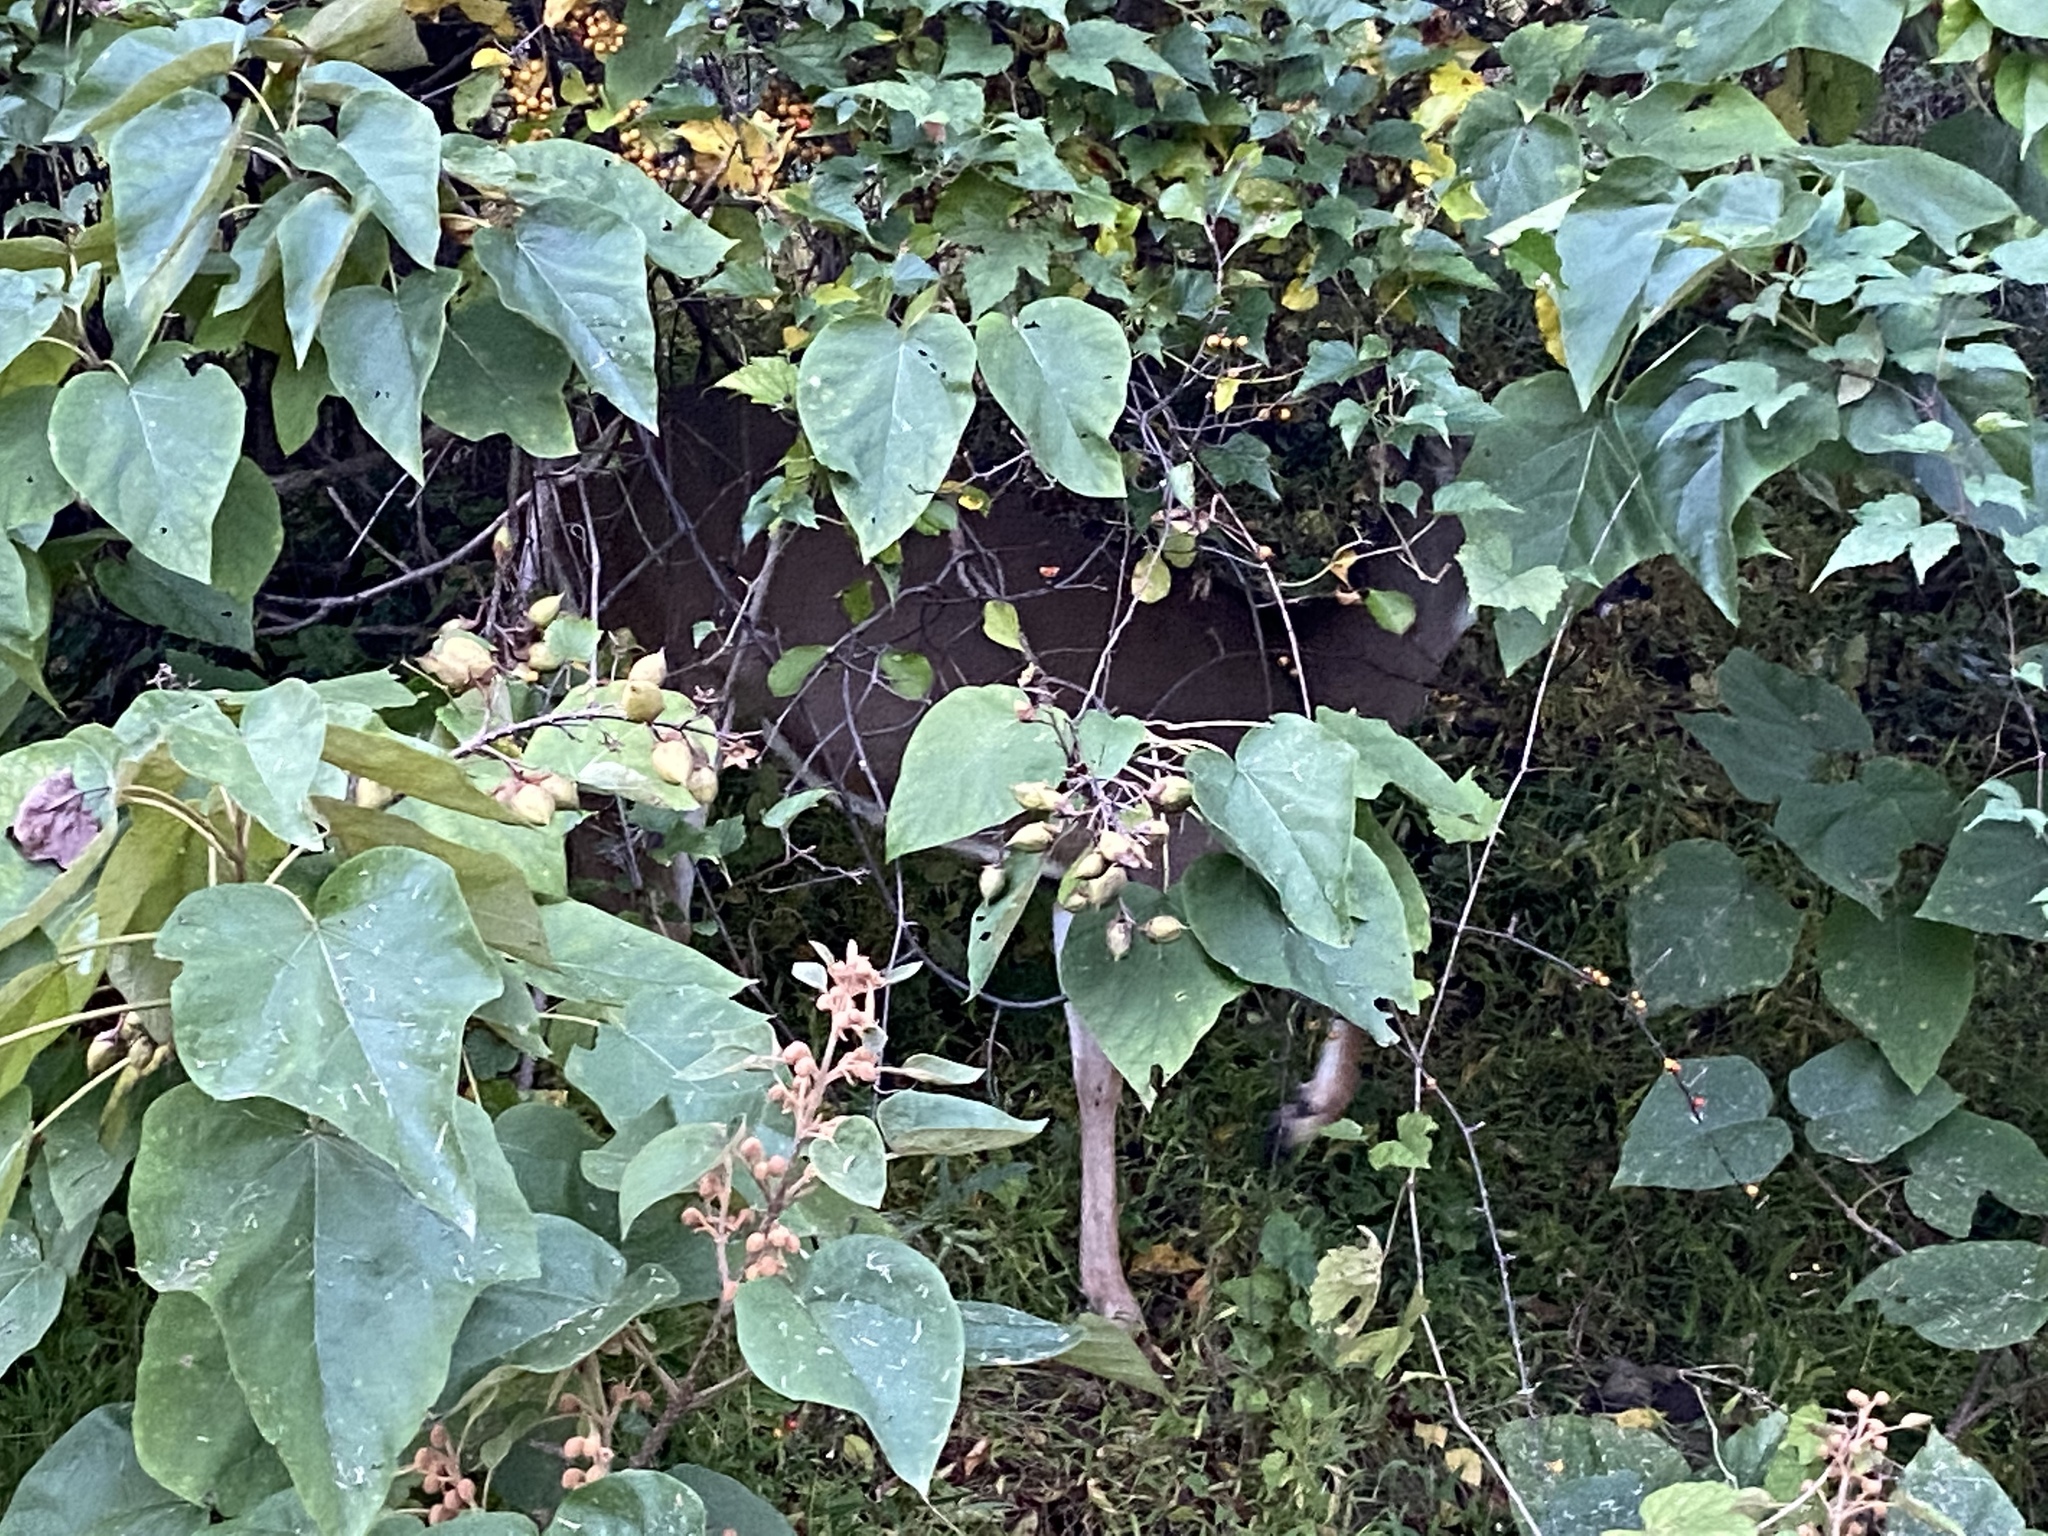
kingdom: Animalia
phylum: Chordata
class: Mammalia
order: Artiodactyla
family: Cervidae
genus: Odocoileus
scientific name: Odocoileus virginianus
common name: White-tailed deer
